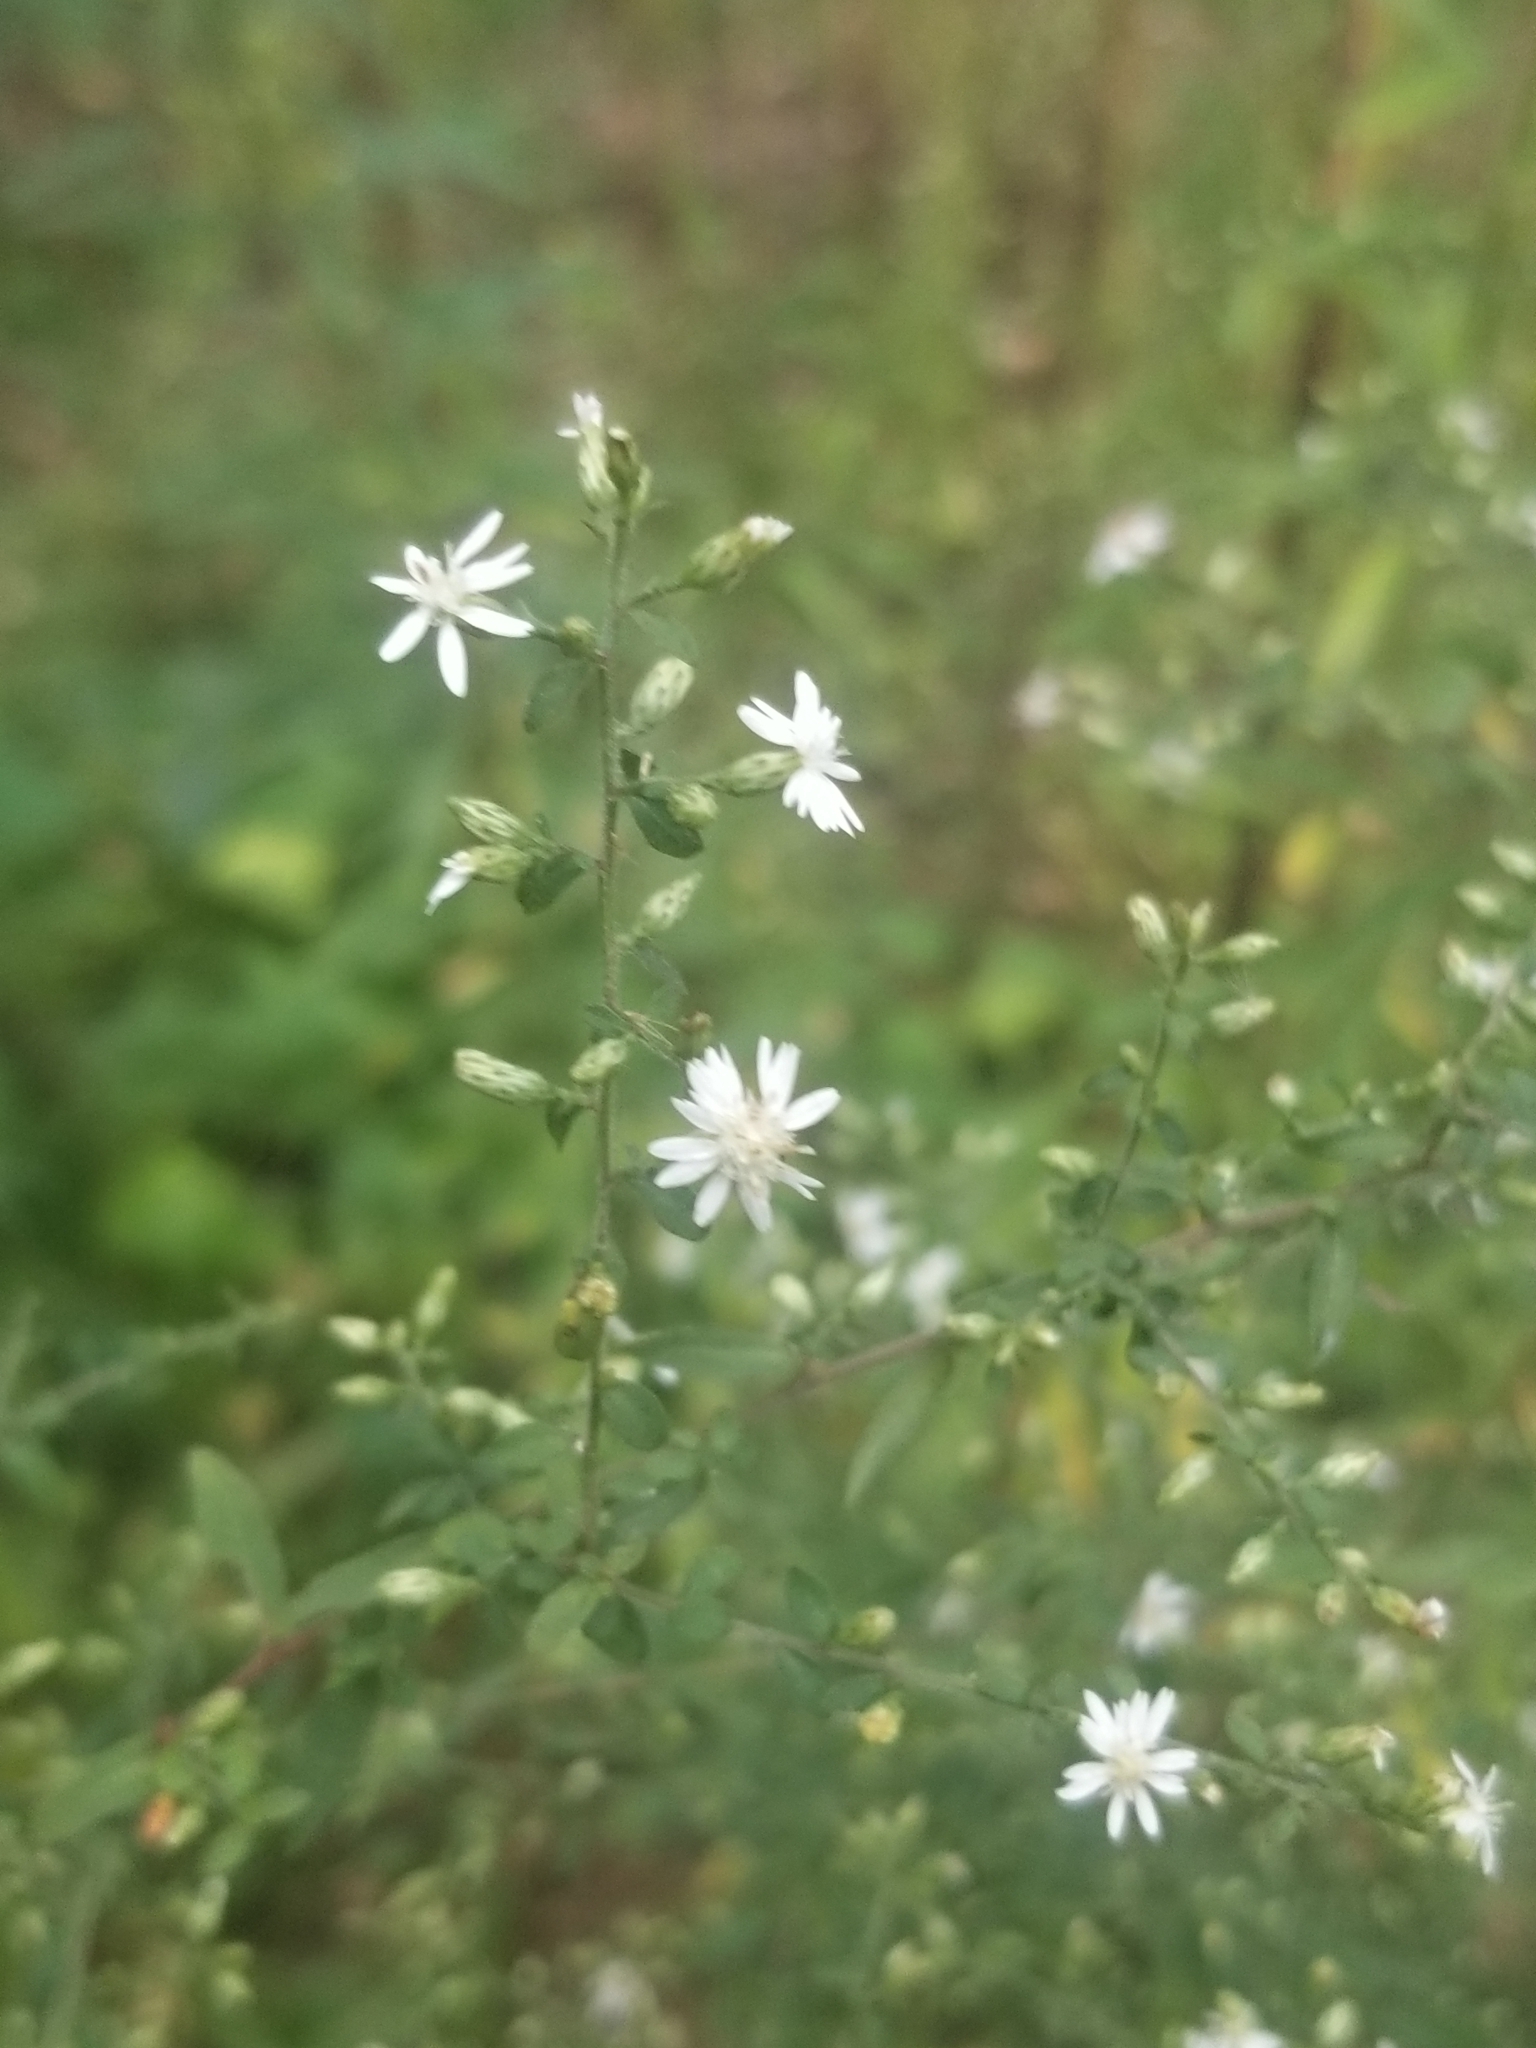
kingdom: Plantae
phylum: Tracheophyta
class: Magnoliopsida
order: Asterales
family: Asteraceae
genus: Symphyotrichum
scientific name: Symphyotrichum lateriflorum
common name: Calico aster
